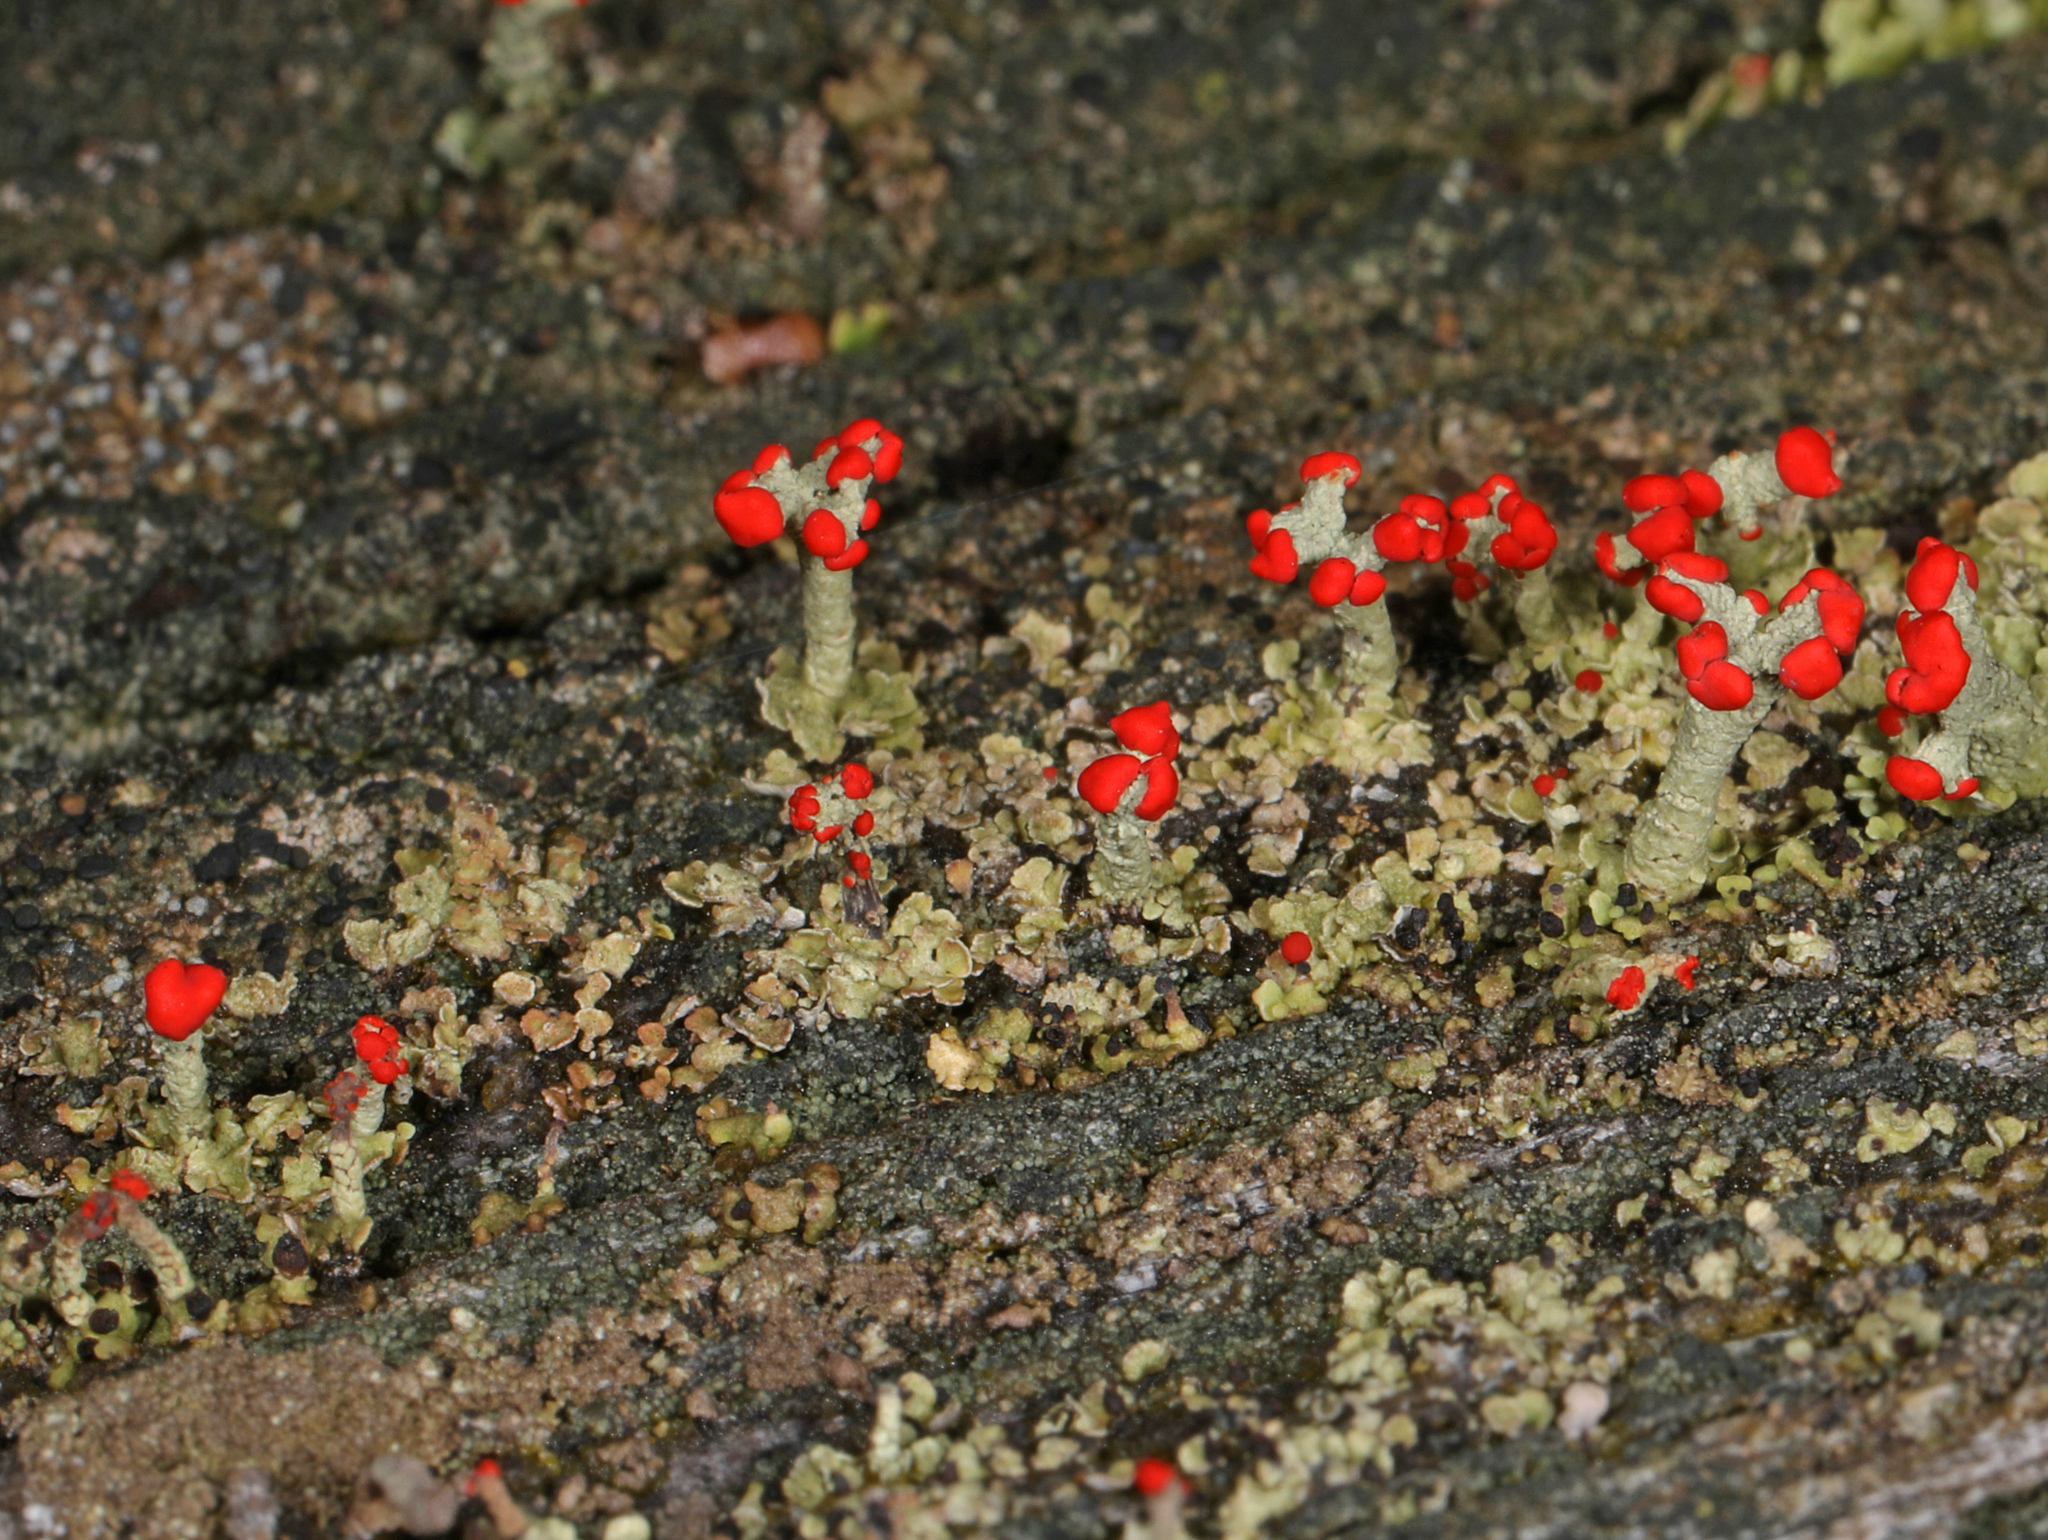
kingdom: Fungi
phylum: Ascomycota
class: Lecanoromycetes
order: Lecanorales
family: Cladoniaceae
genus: Cladonia
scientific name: Cladonia cristatella
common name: British soldier lichen
